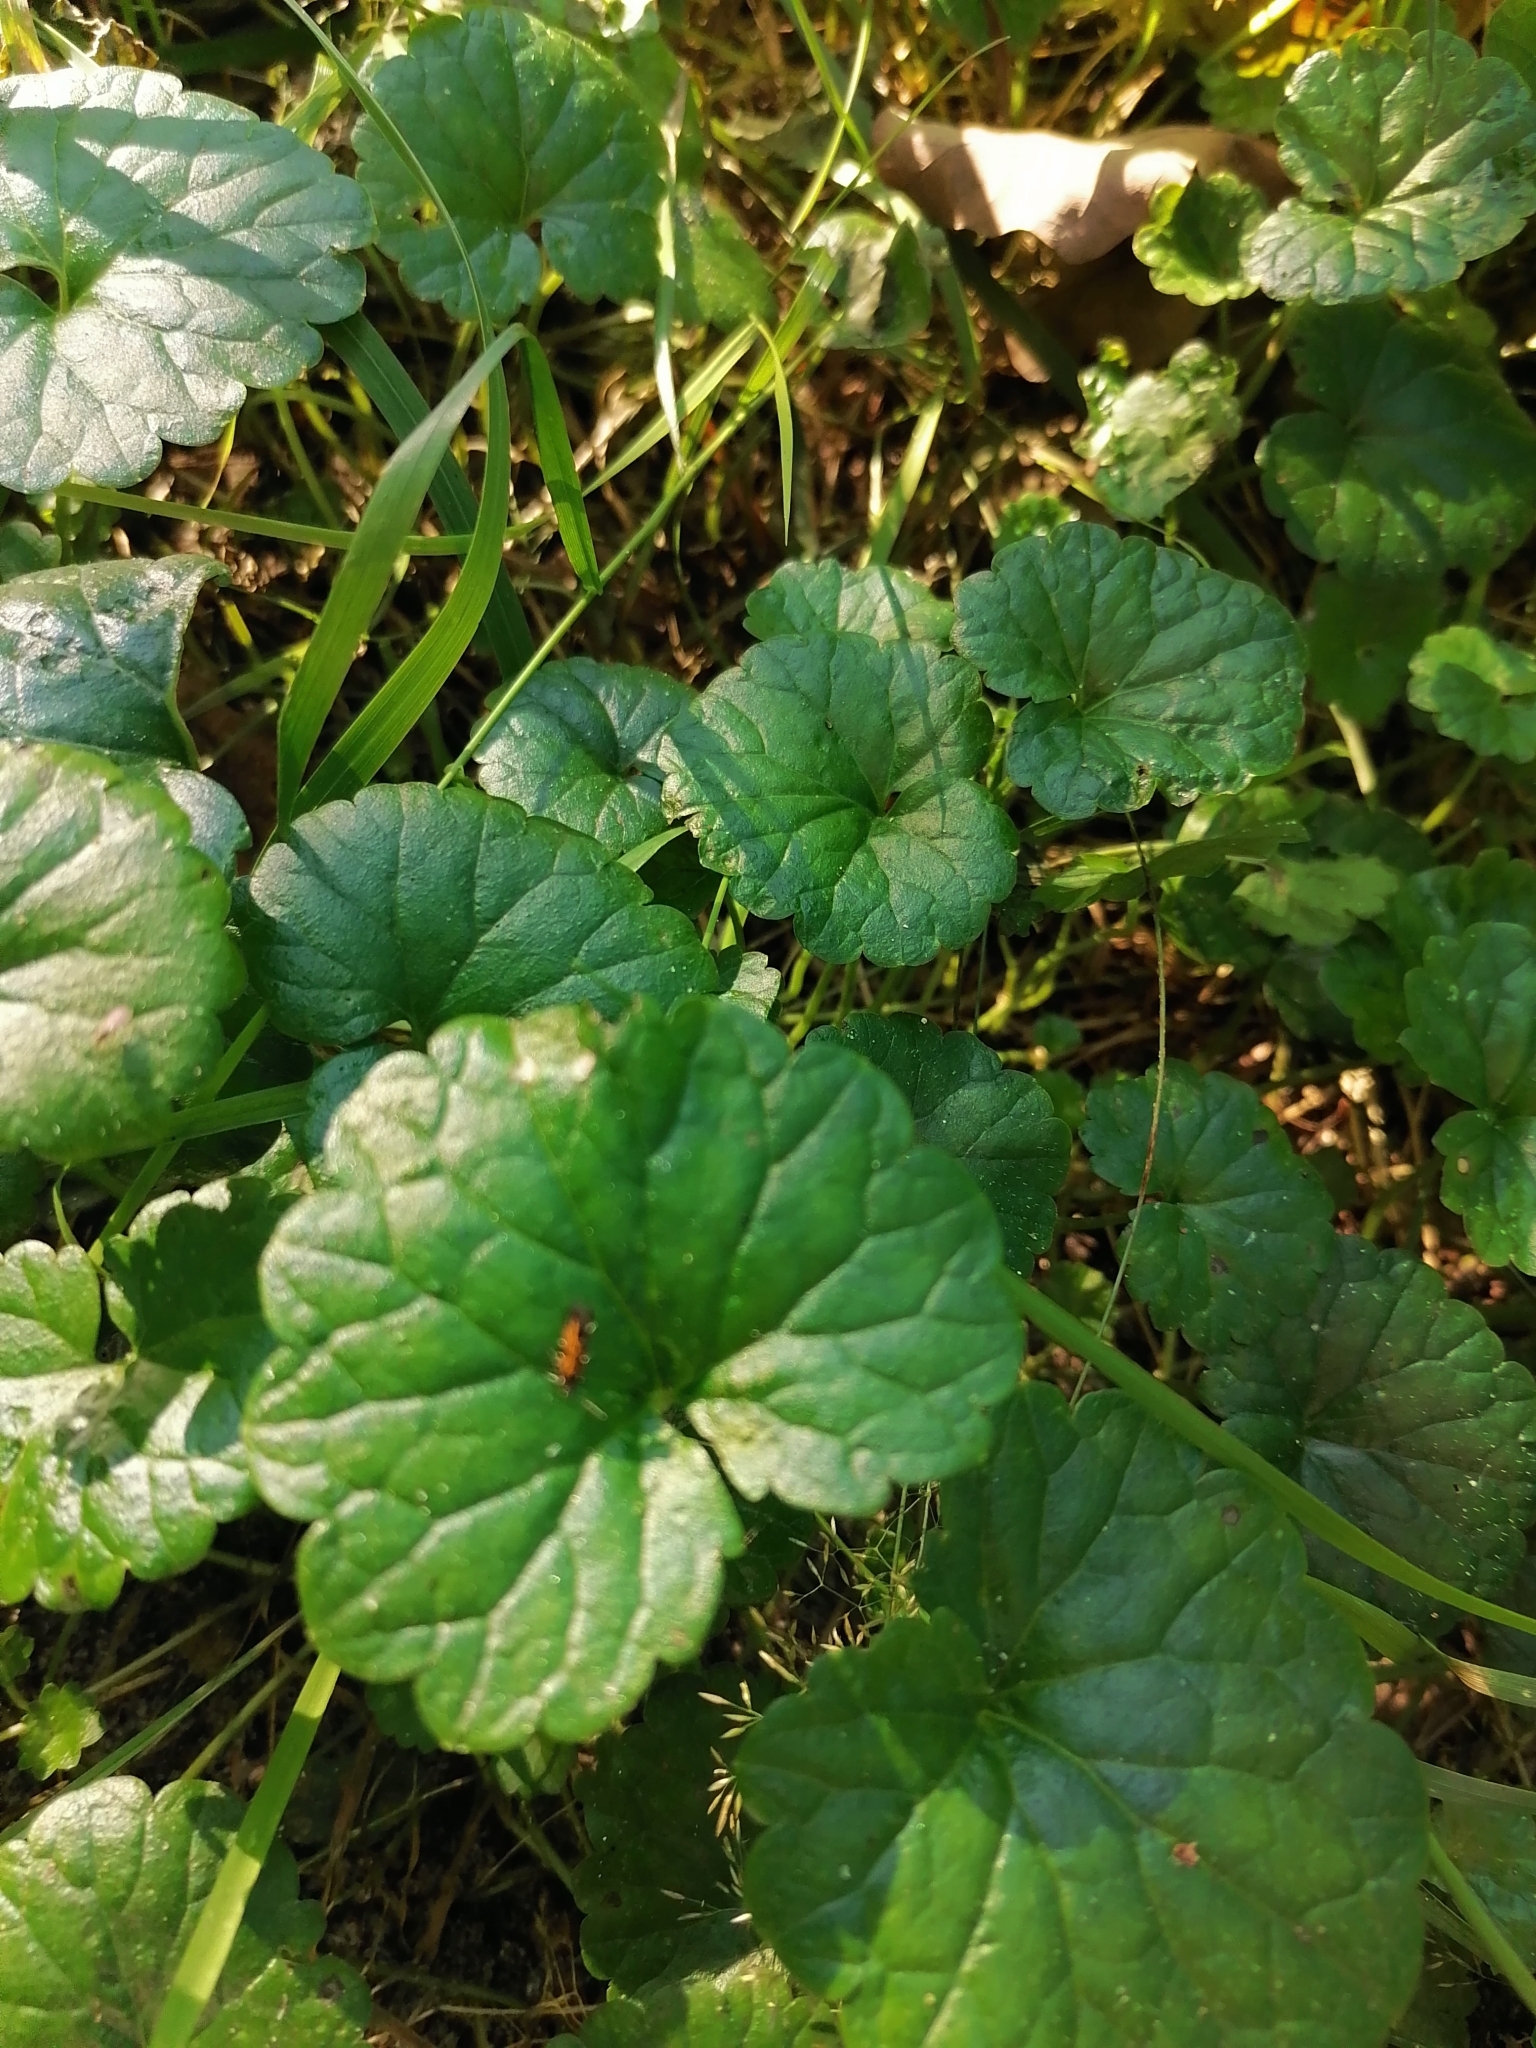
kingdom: Plantae
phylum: Tracheophyta
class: Magnoliopsida
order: Lamiales
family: Lamiaceae
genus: Glechoma
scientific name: Glechoma hederacea
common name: Ground ivy
